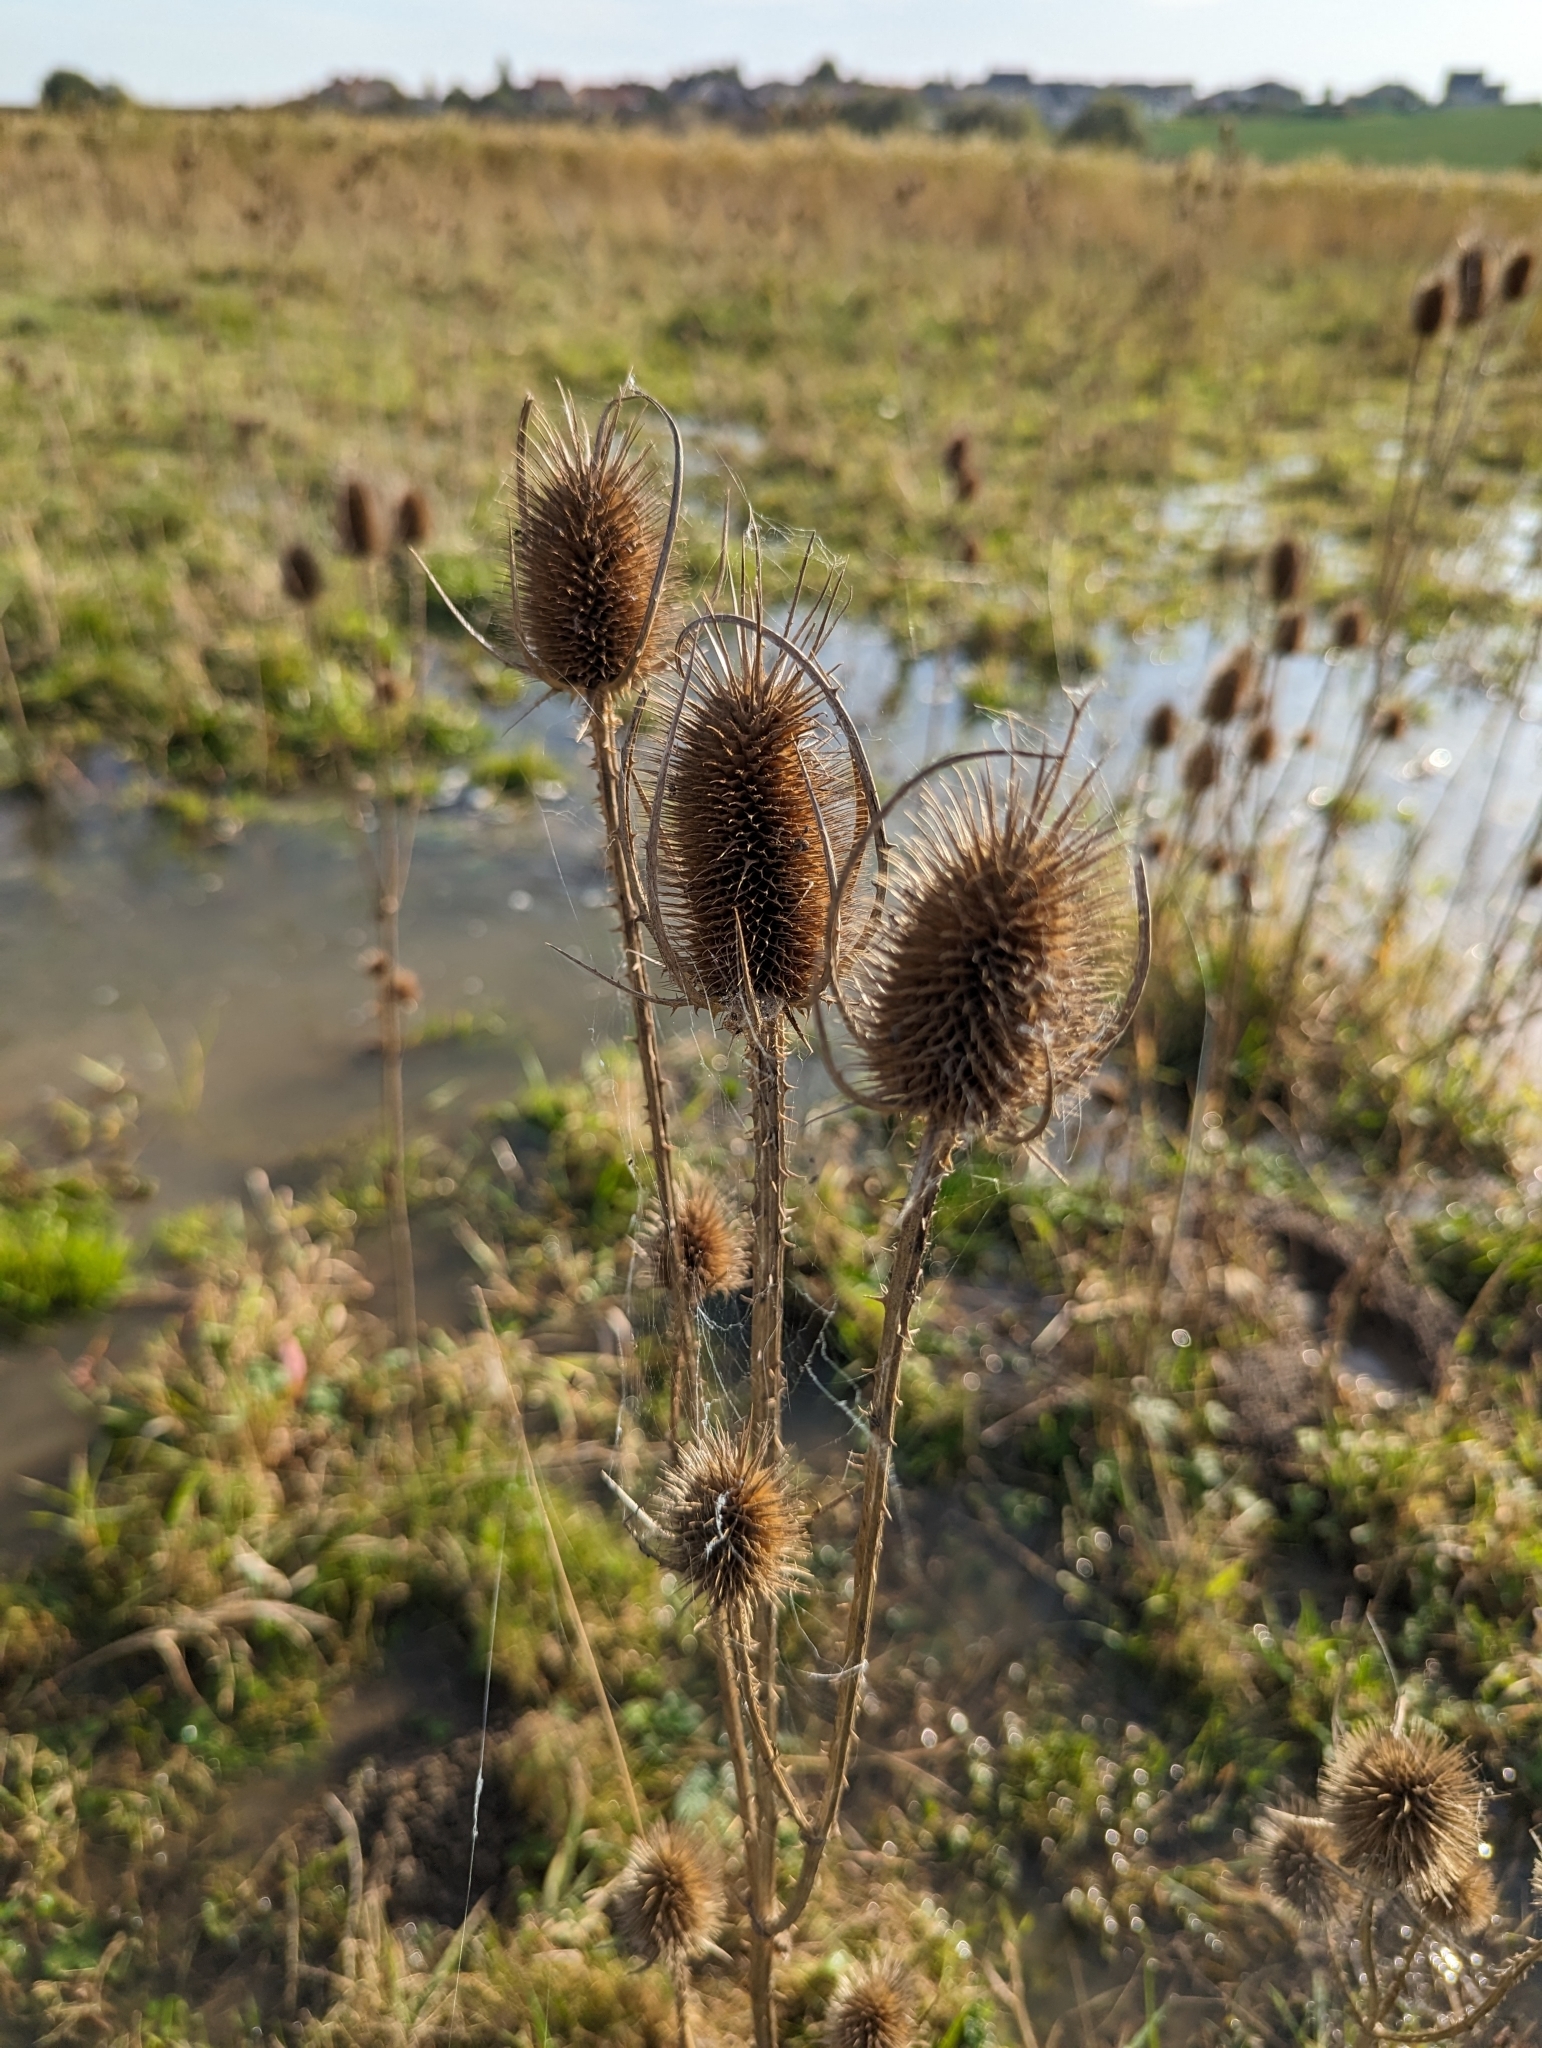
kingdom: Plantae
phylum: Tracheophyta
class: Magnoliopsida
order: Dipsacales
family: Caprifoliaceae
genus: Dipsacus
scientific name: Dipsacus fullonum
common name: Teasel
